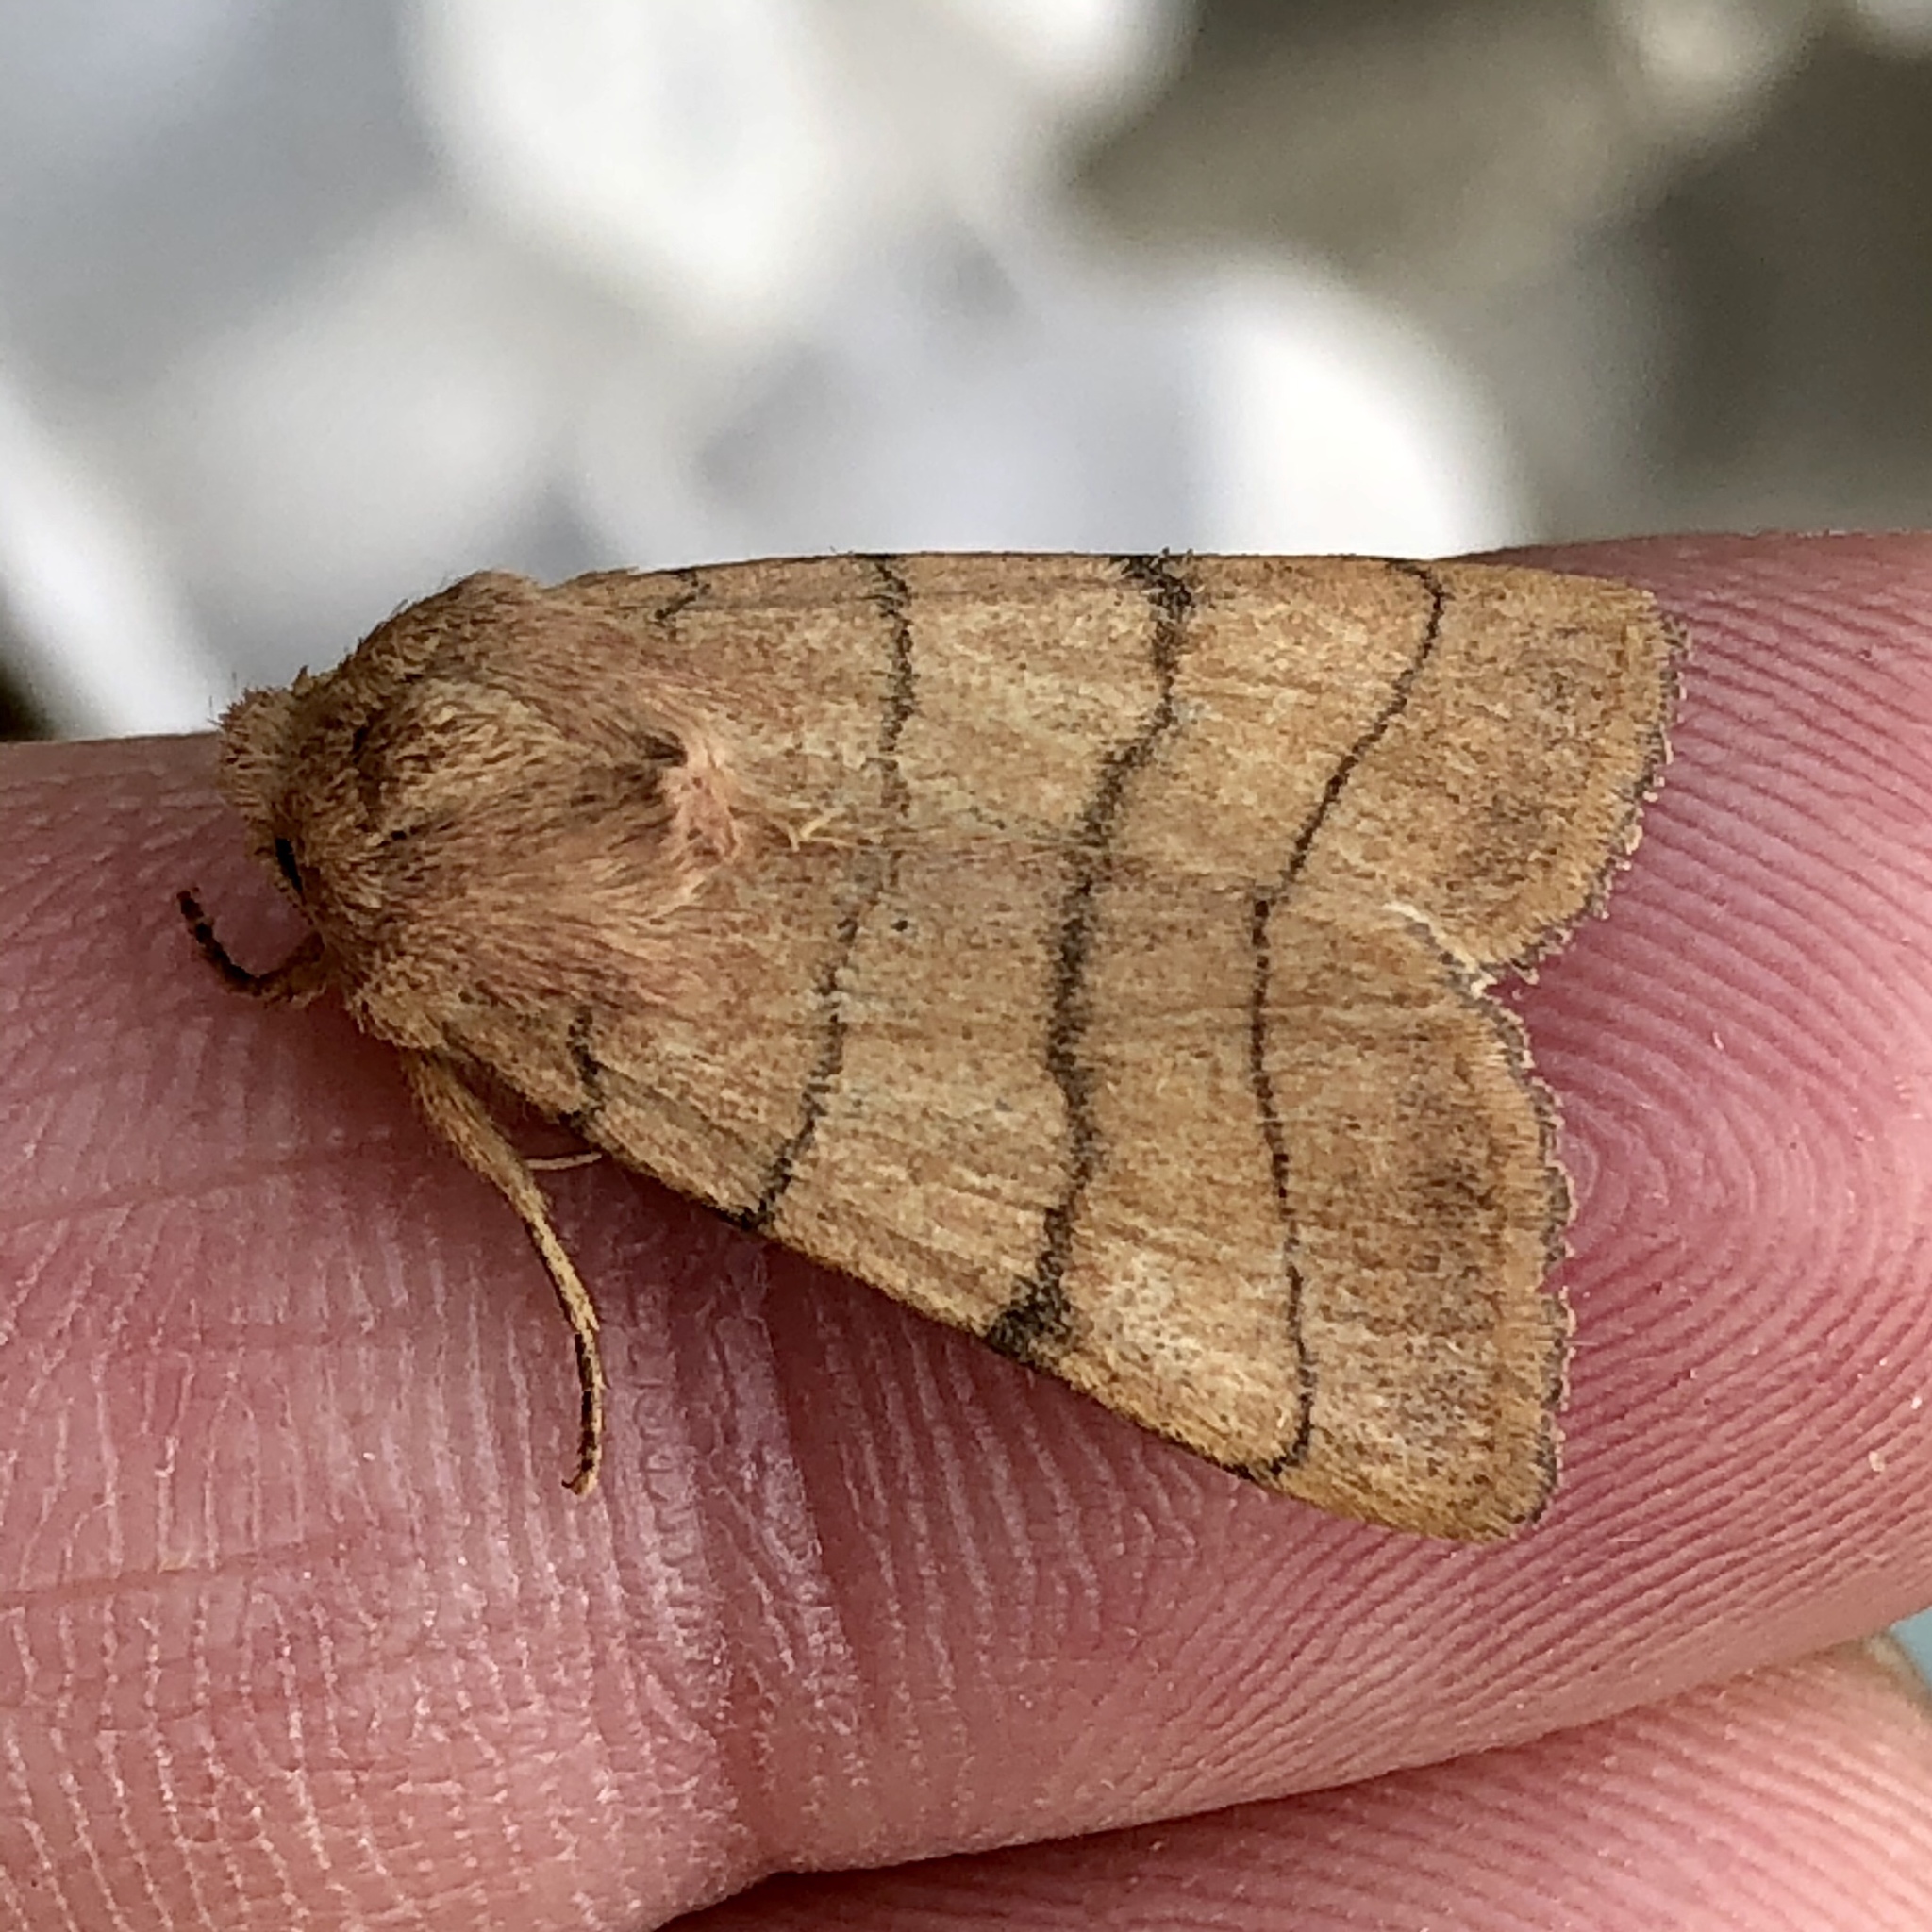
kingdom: Animalia
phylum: Arthropoda
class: Insecta
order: Lepidoptera
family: Noctuidae
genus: Charanyca
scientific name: Charanyca trigrammica
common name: Treble lines
